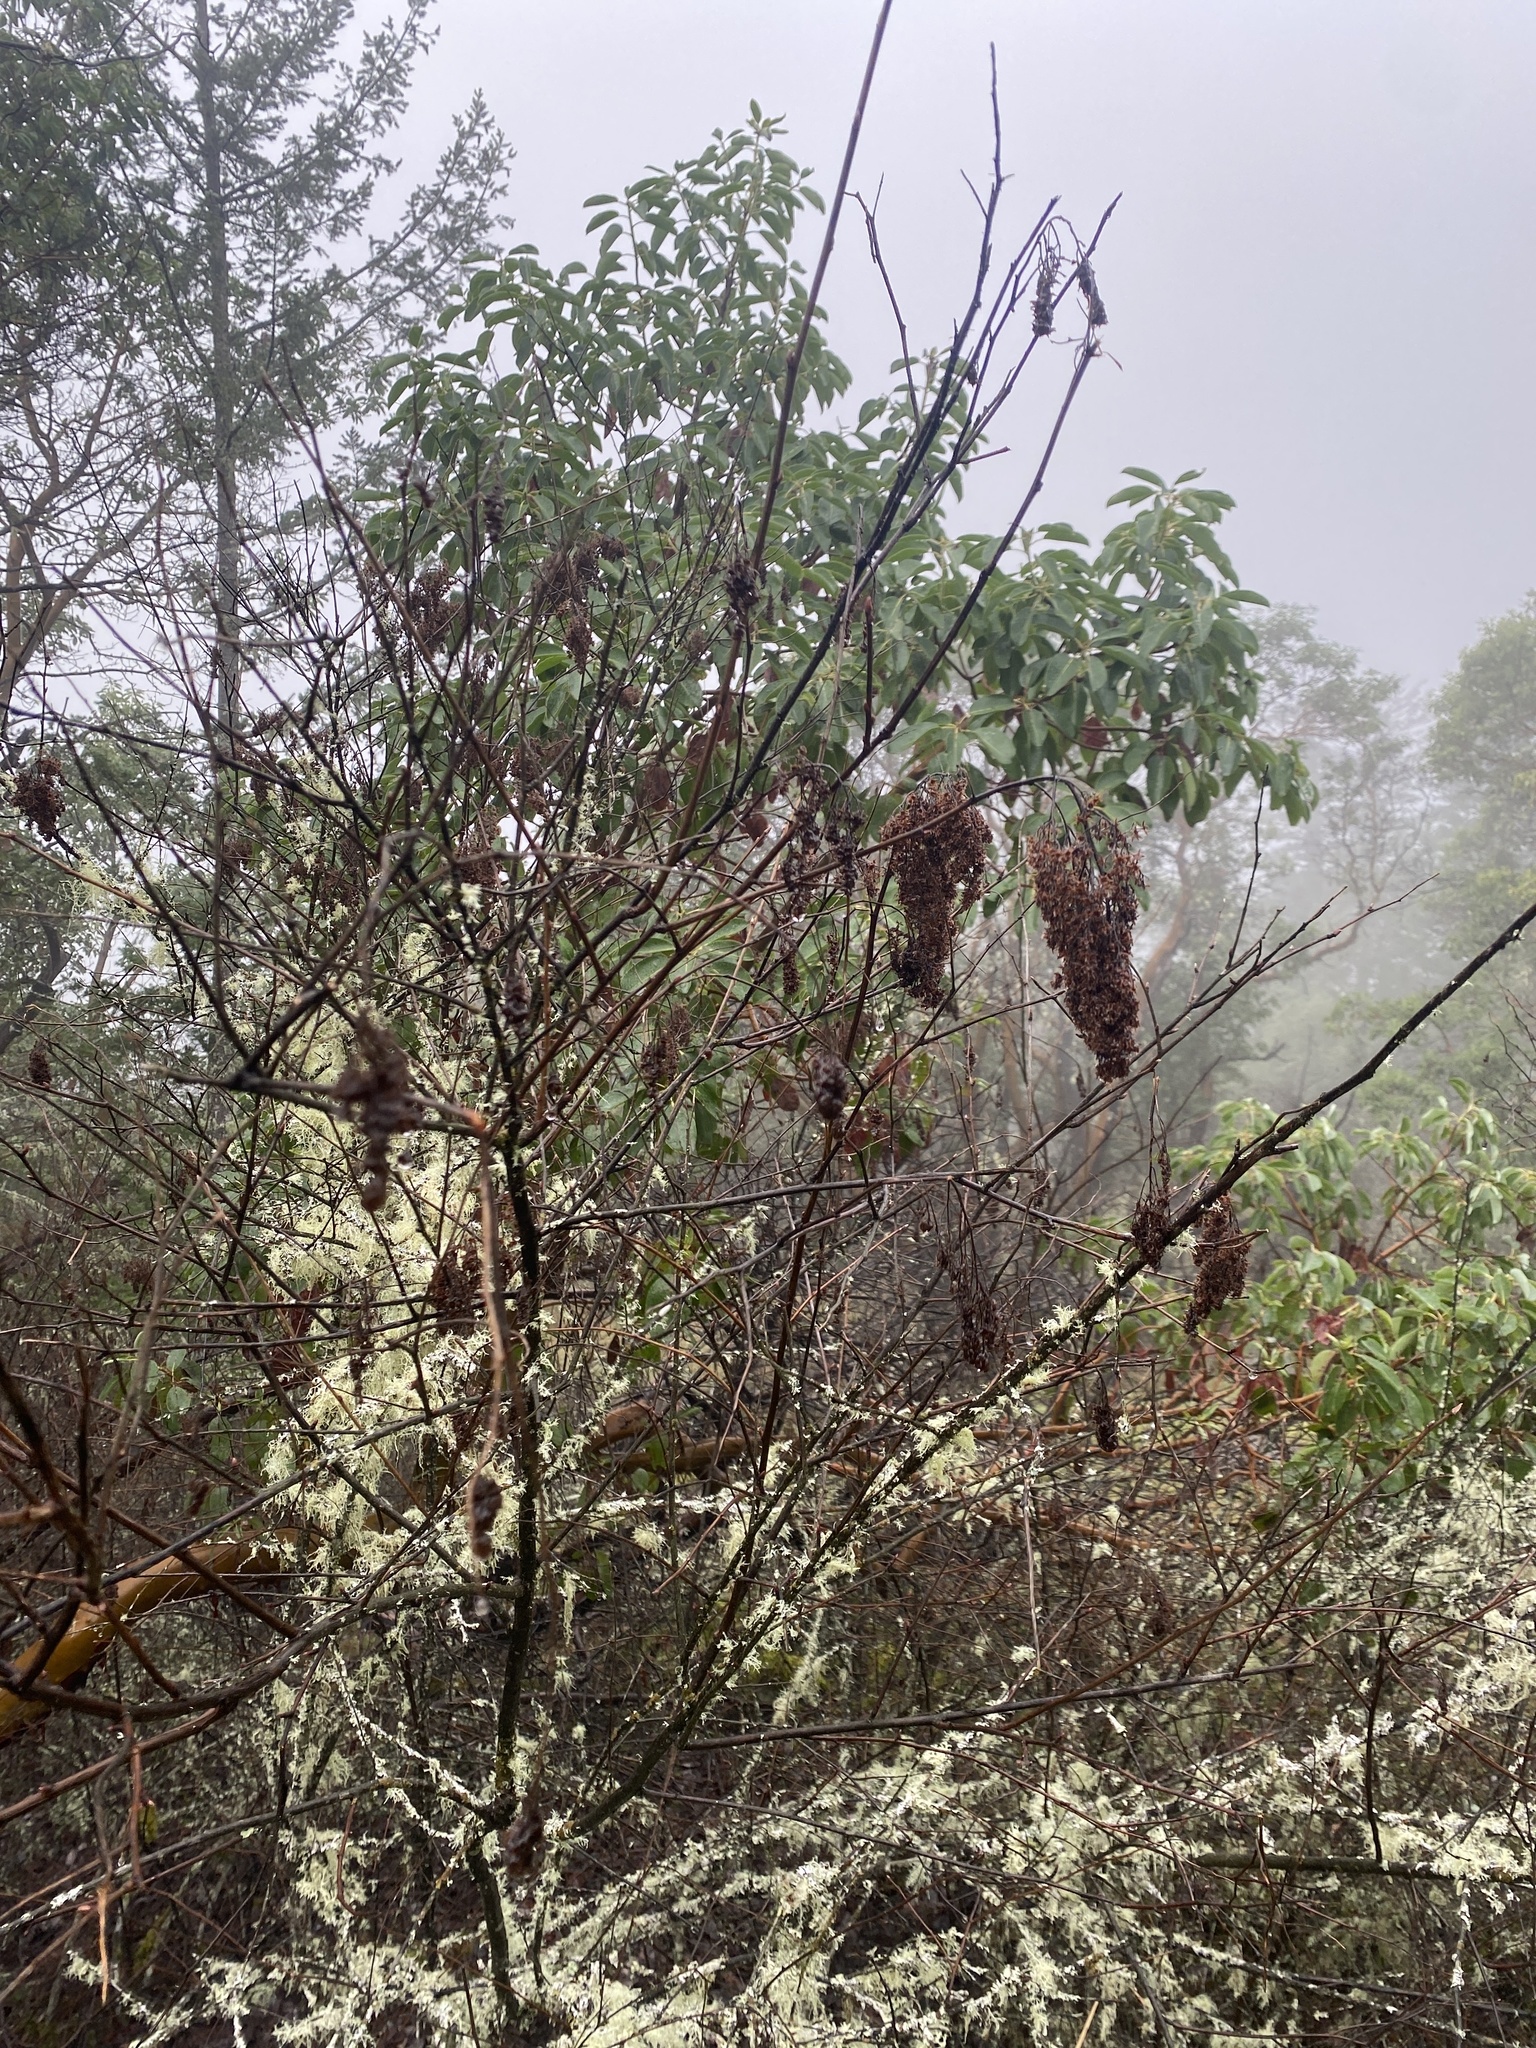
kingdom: Plantae
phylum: Tracheophyta
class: Magnoliopsida
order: Rosales
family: Rosaceae
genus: Holodiscus
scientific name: Holodiscus discolor
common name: Oceanspray
